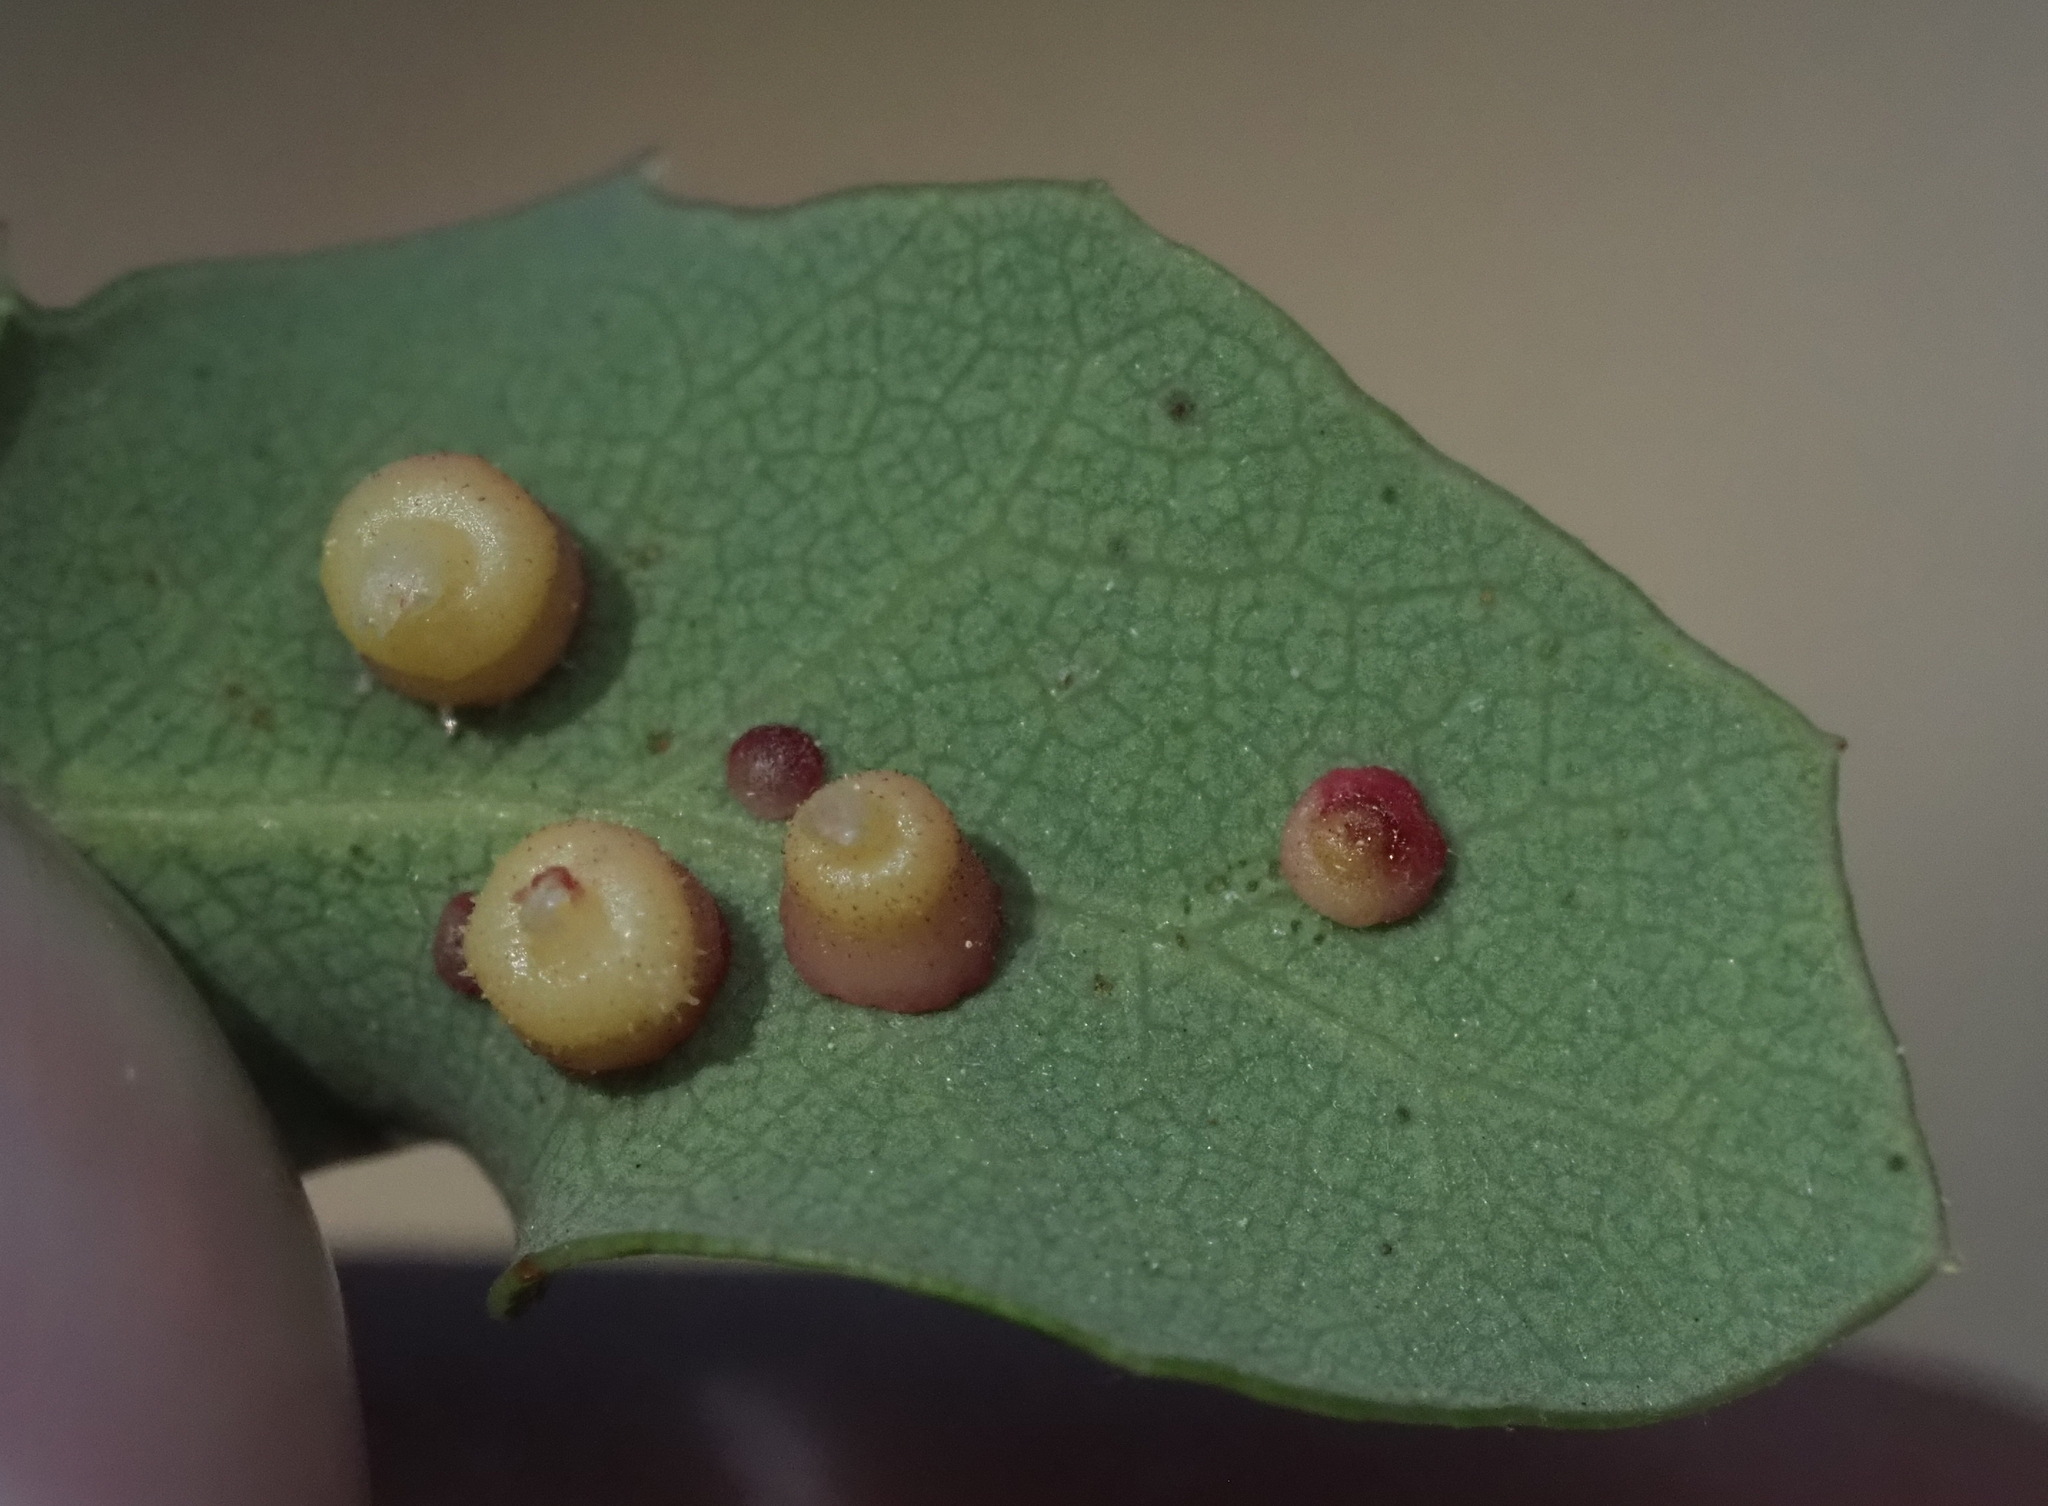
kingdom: Animalia
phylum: Arthropoda
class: Insecta
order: Hymenoptera
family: Cynipidae
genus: Andricus
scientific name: Andricus
